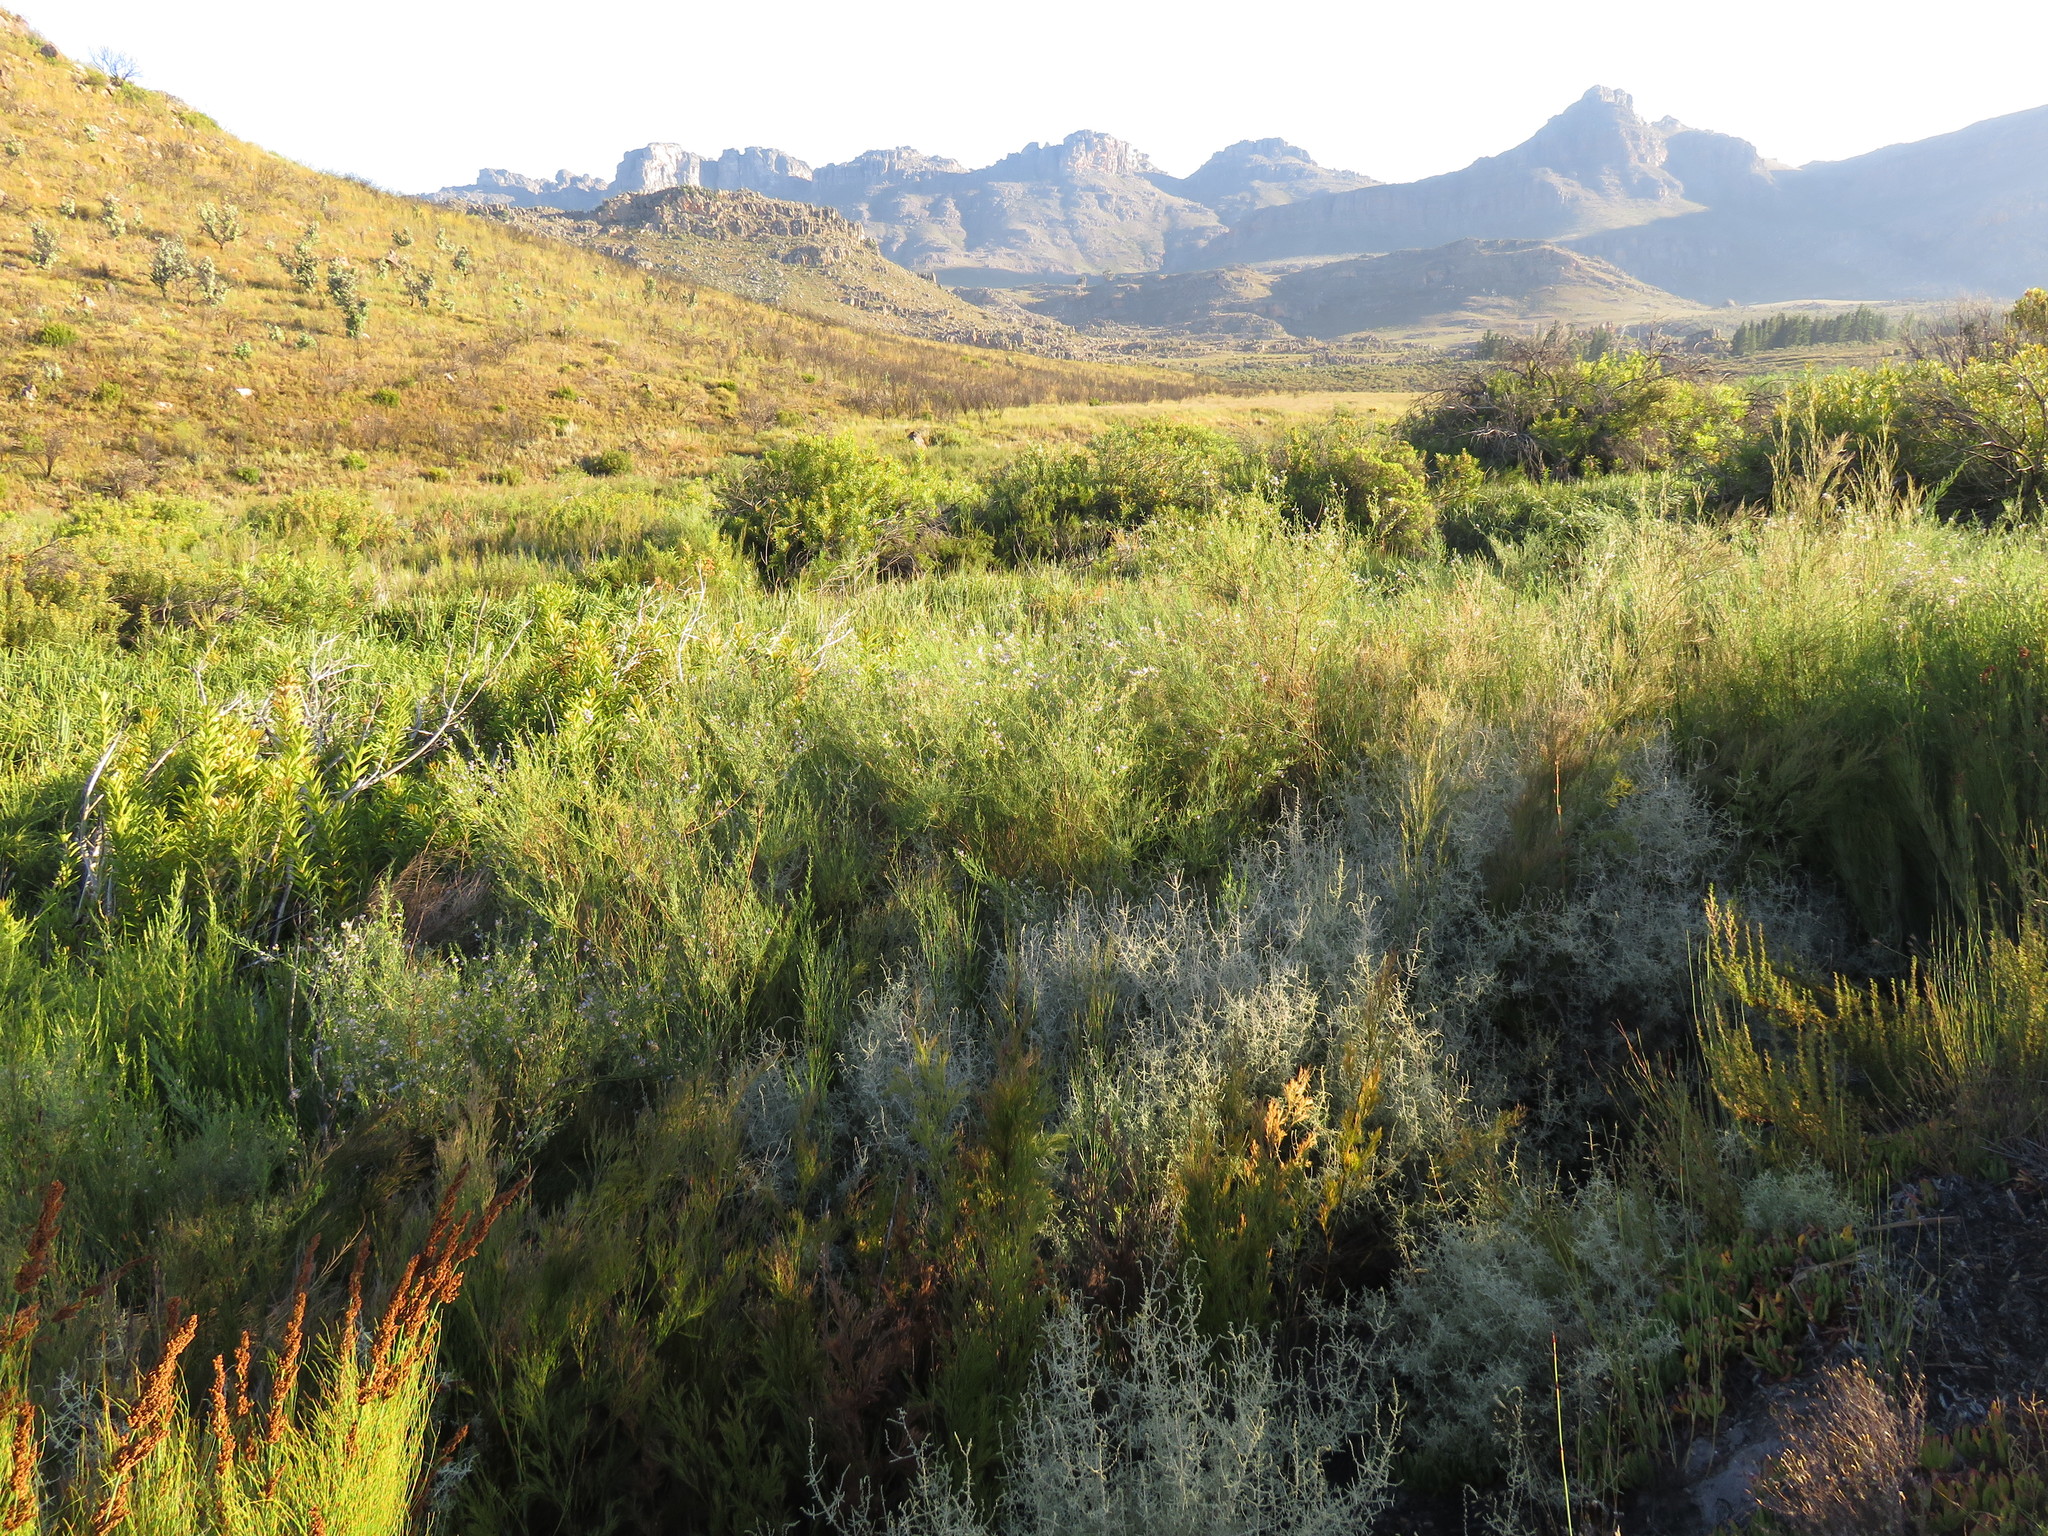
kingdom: Plantae
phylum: Tracheophyta
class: Magnoliopsida
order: Fabales
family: Fabaceae
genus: Psoralea
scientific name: Psoralea verrucosa
